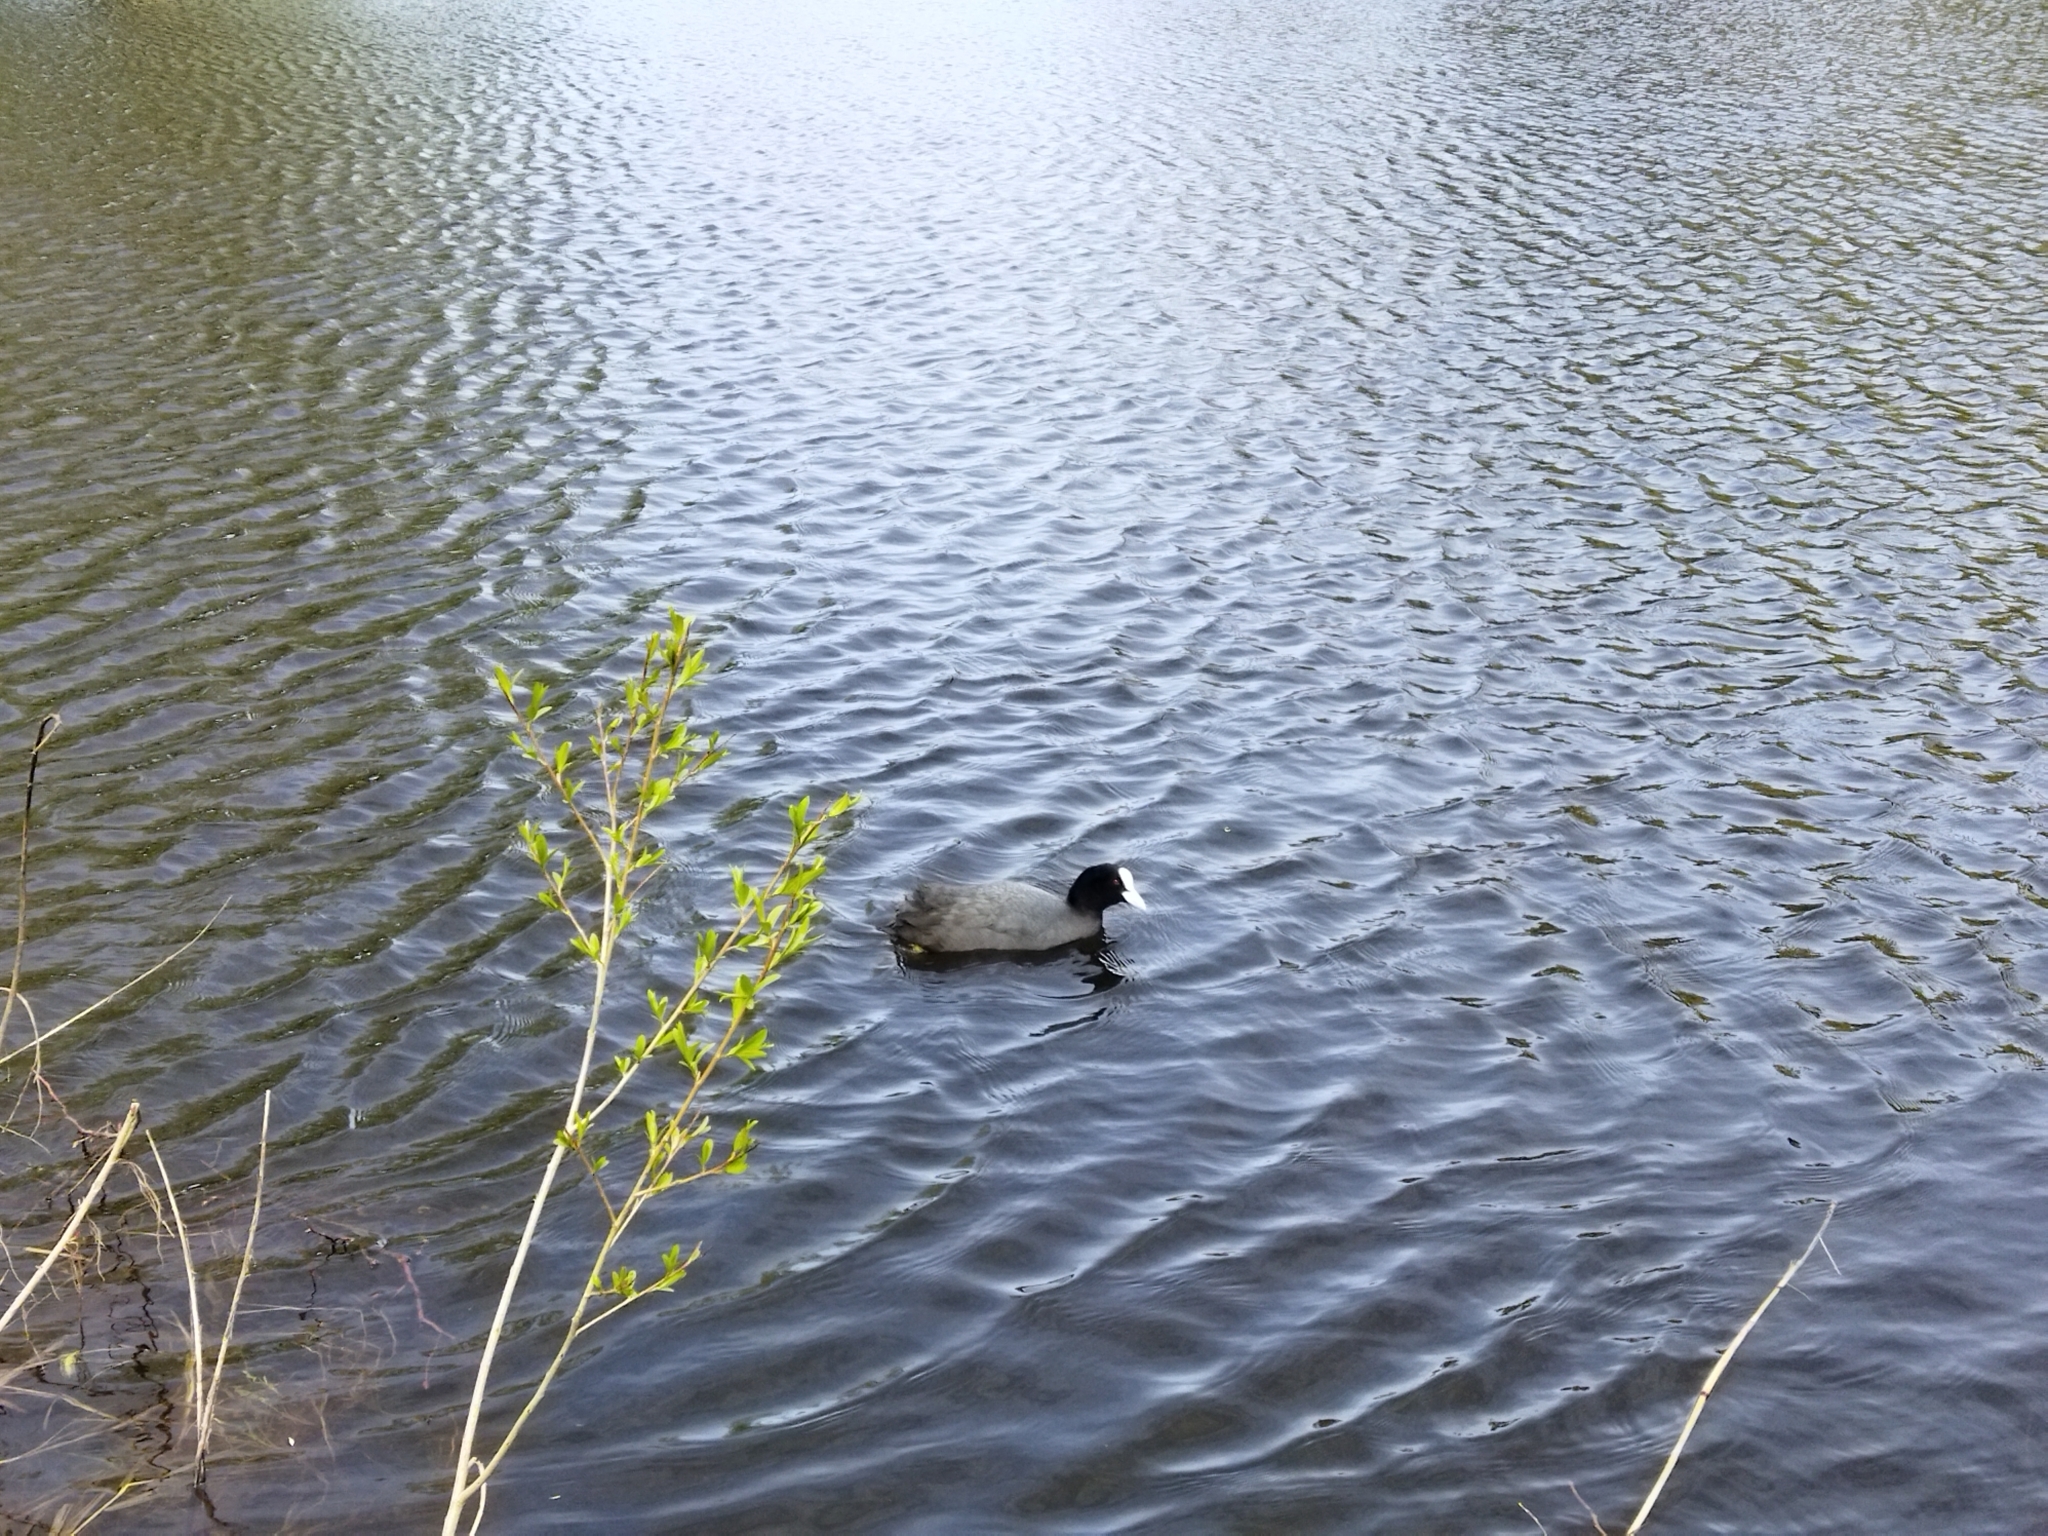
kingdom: Animalia
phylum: Chordata
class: Aves
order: Gruiformes
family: Rallidae
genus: Fulica
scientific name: Fulica atra
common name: Eurasian coot
